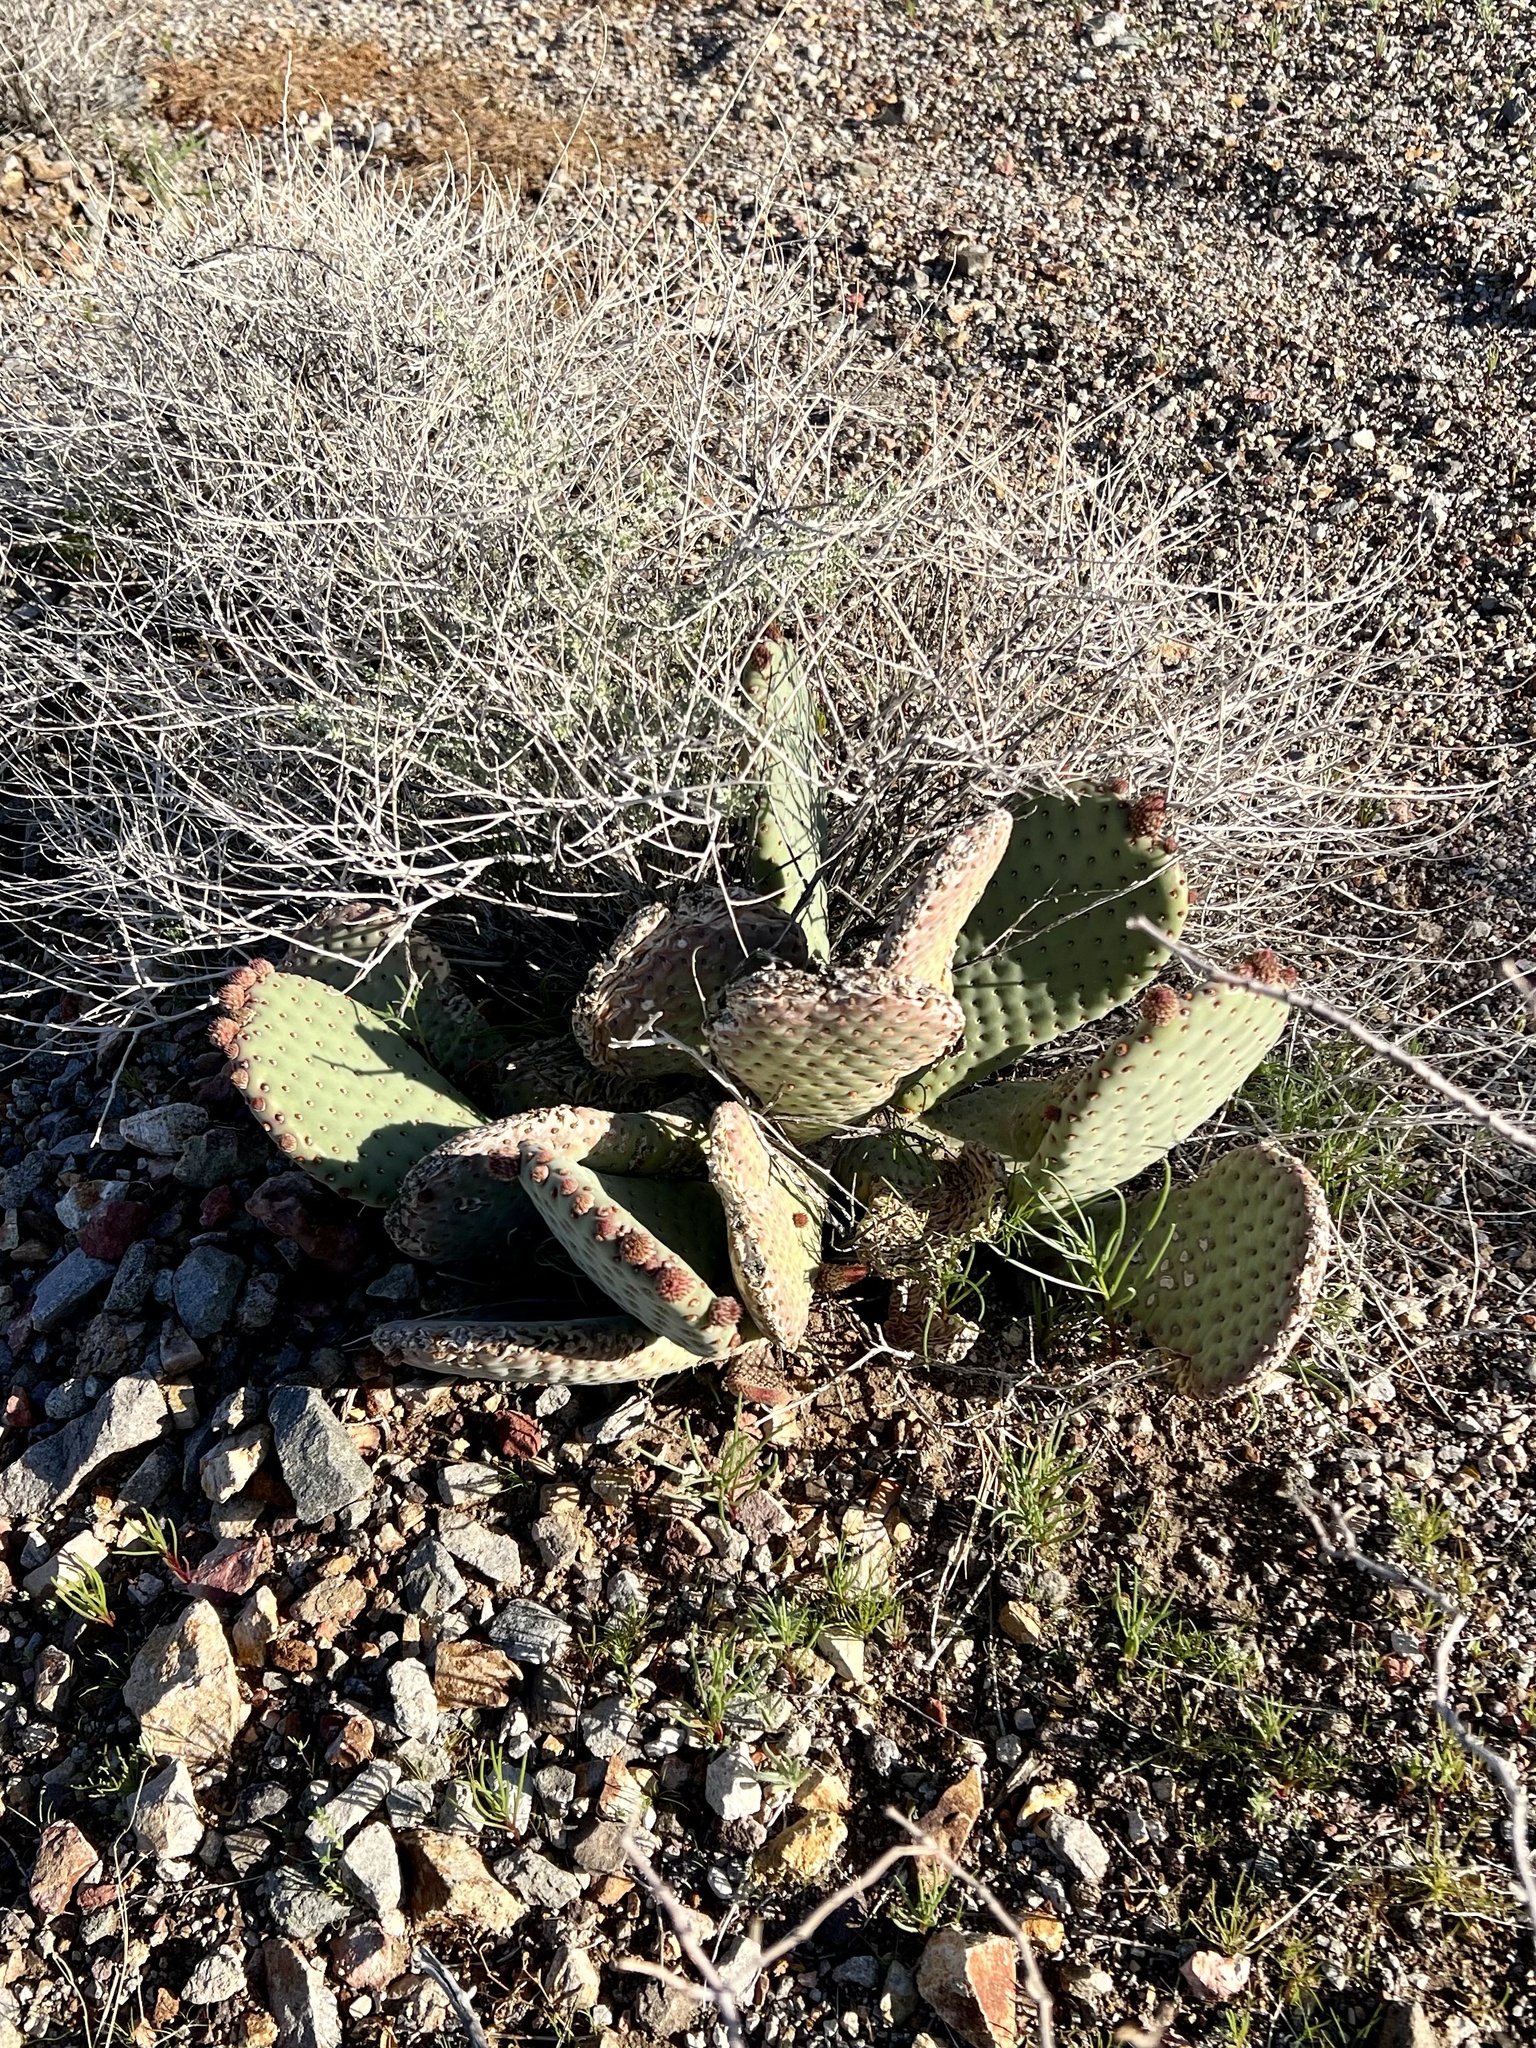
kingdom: Plantae
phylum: Tracheophyta
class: Magnoliopsida
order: Caryophyllales
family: Cactaceae
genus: Opuntia
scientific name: Opuntia basilaris
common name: Beavertail prickly-pear
